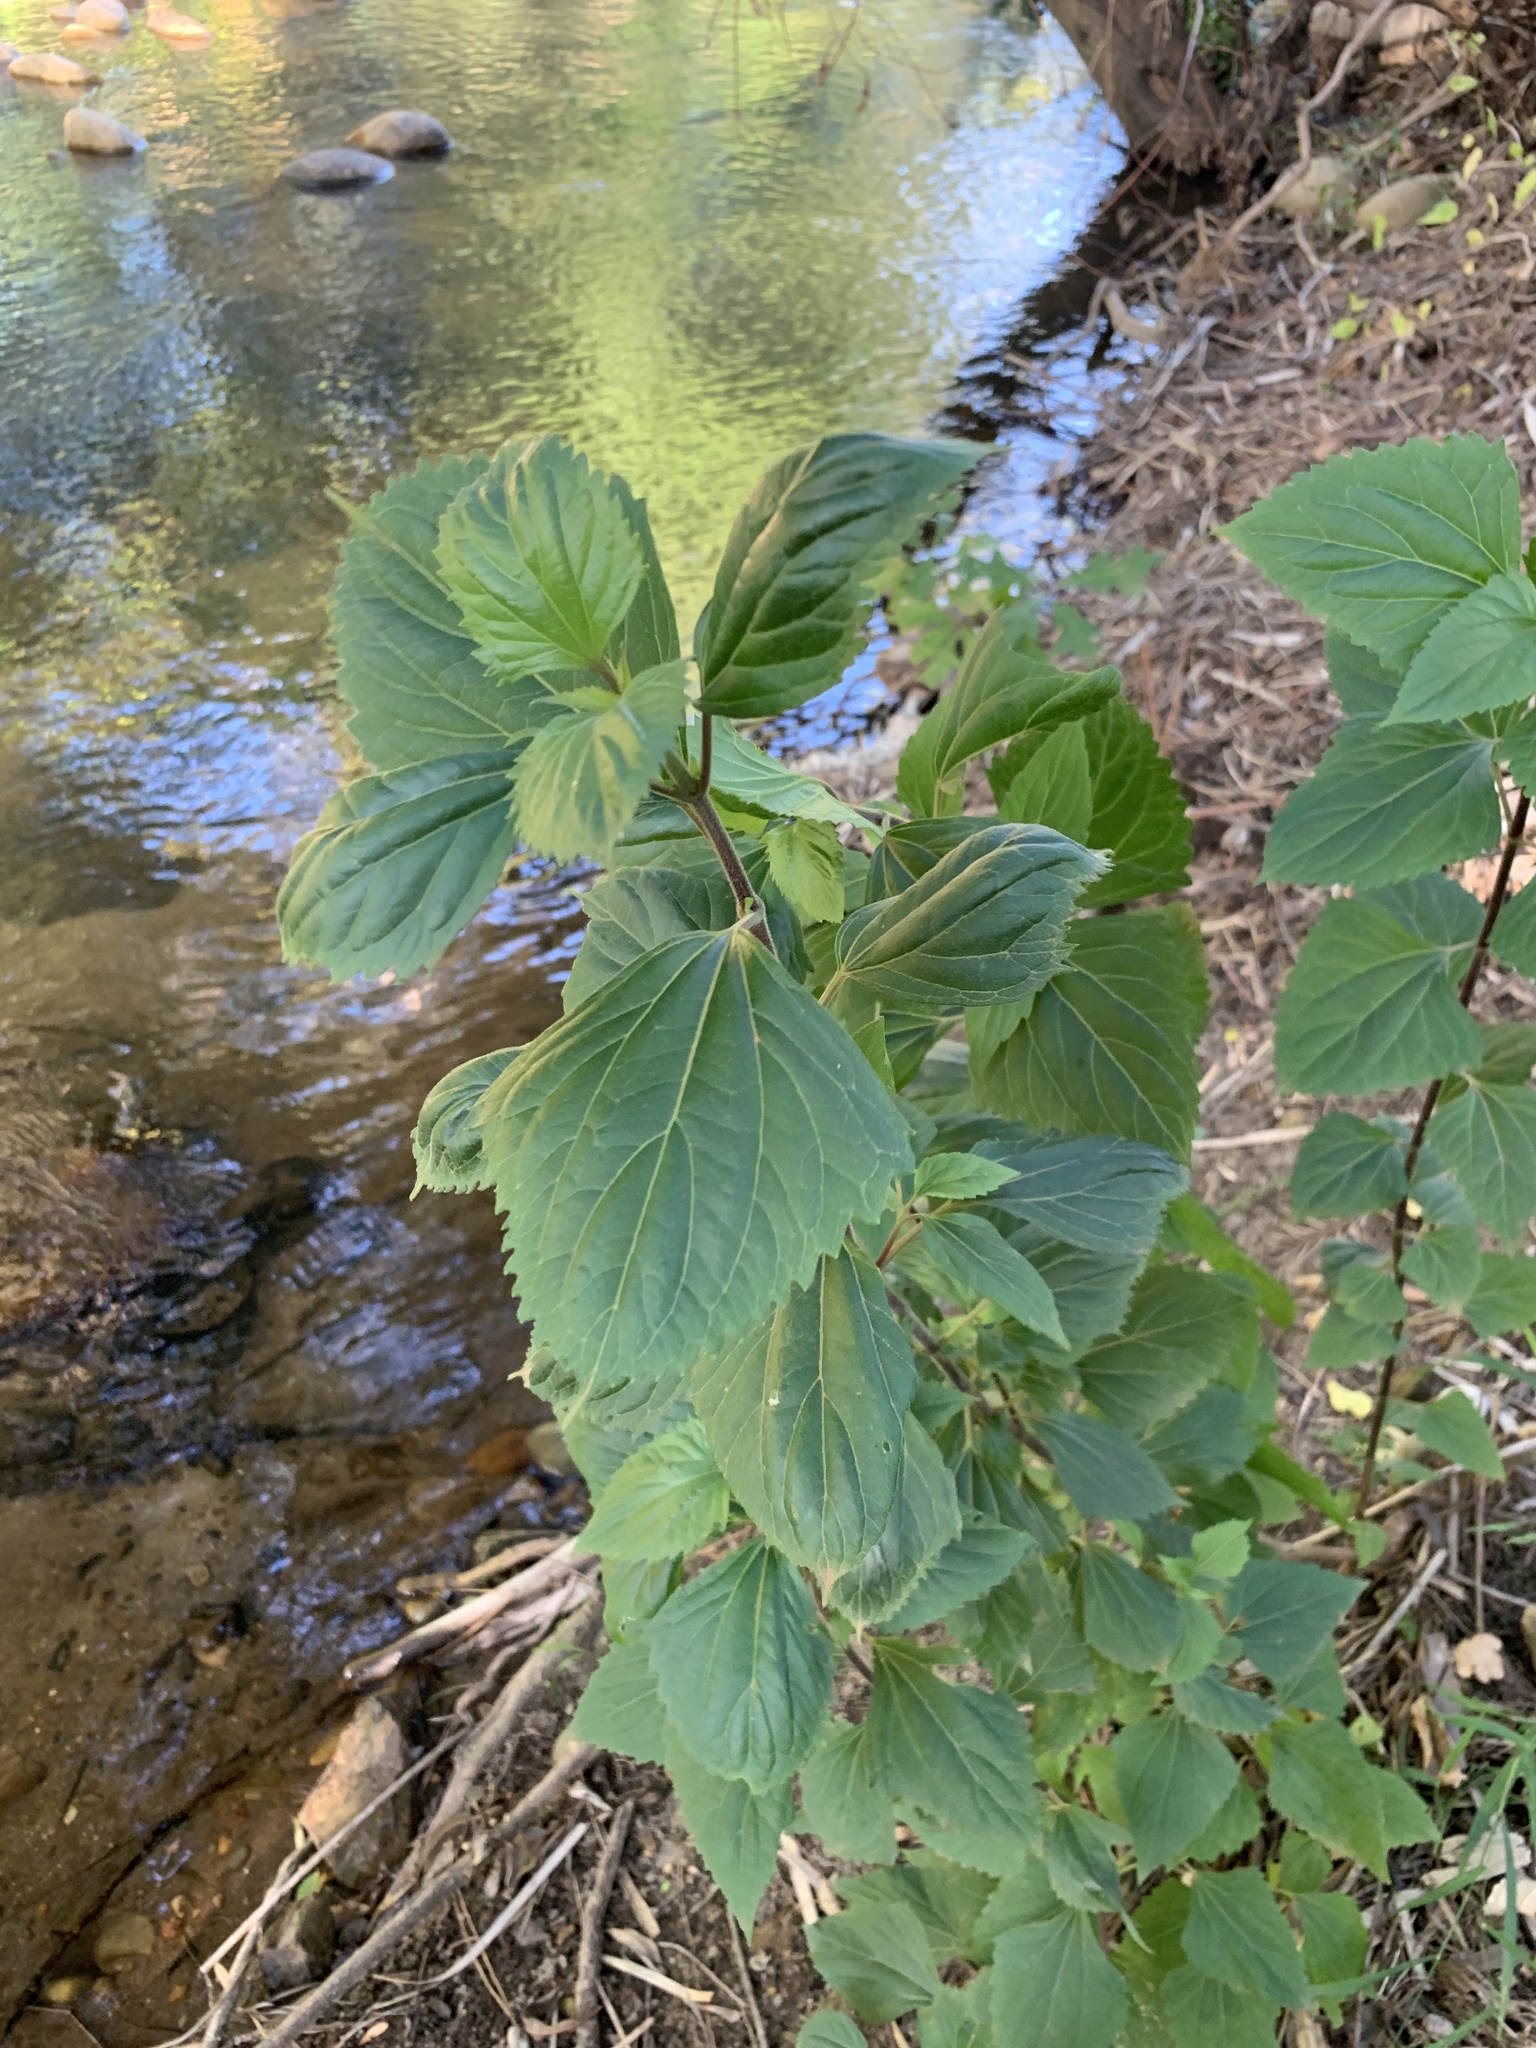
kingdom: Plantae
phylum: Tracheophyta
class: Magnoliopsida
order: Asterales
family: Asteraceae
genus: Ageratina
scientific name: Ageratina adenophora
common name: Sticky snakeroot
